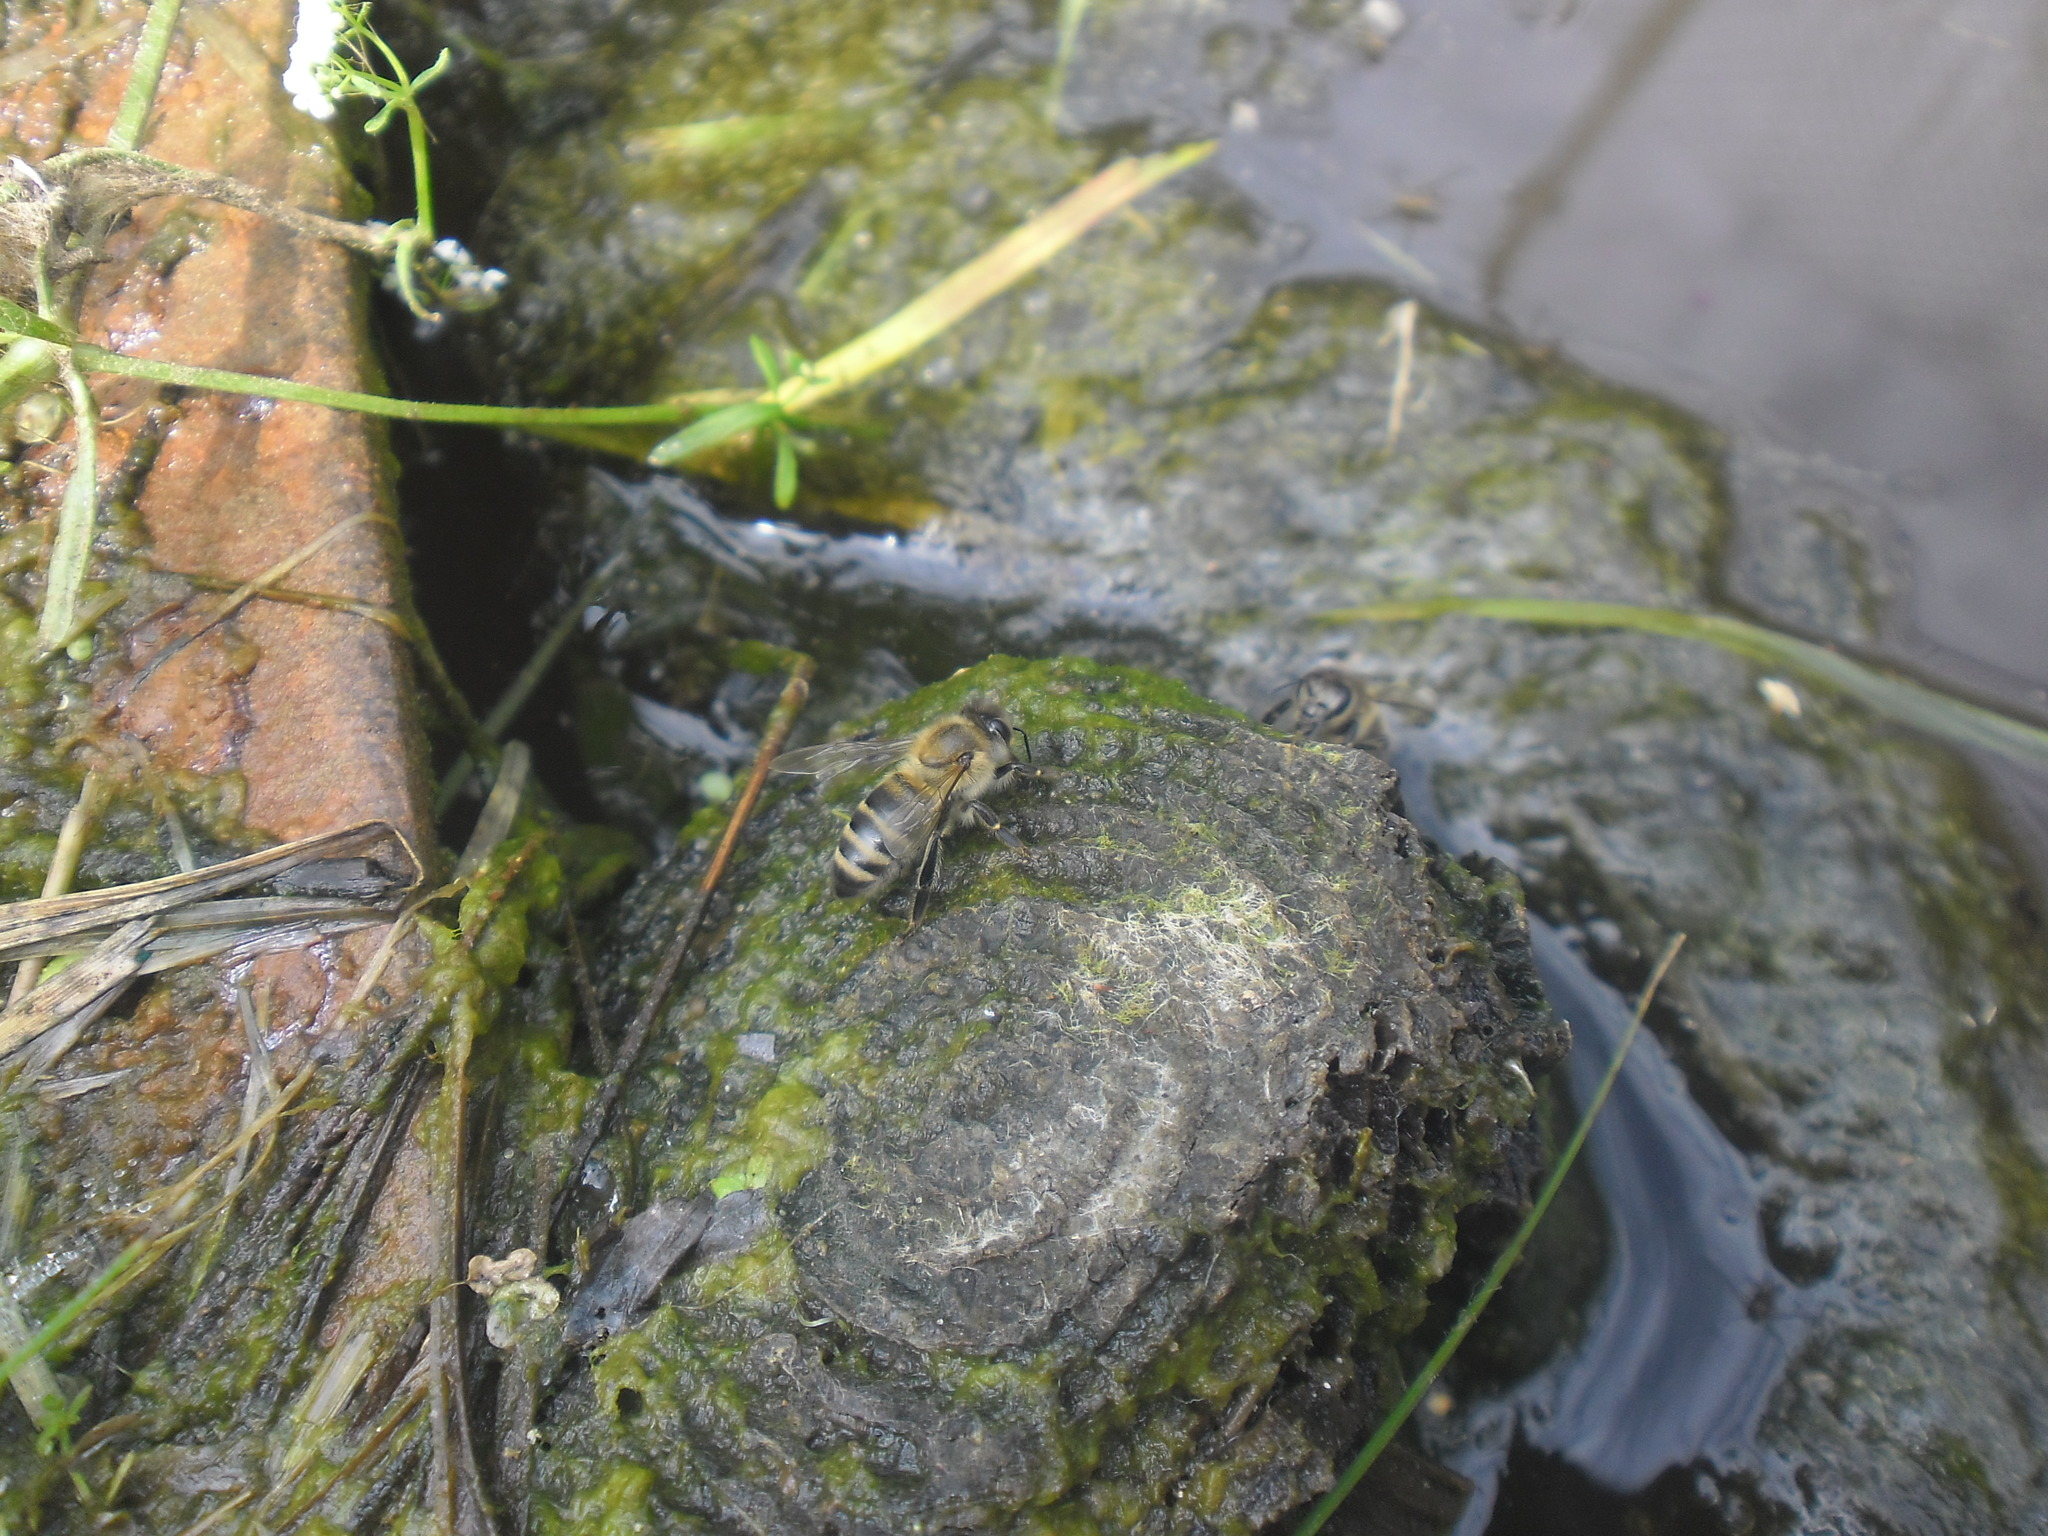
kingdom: Animalia
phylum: Arthropoda
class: Insecta
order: Hymenoptera
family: Apidae
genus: Apis
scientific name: Apis mellifera
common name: Honey bee
